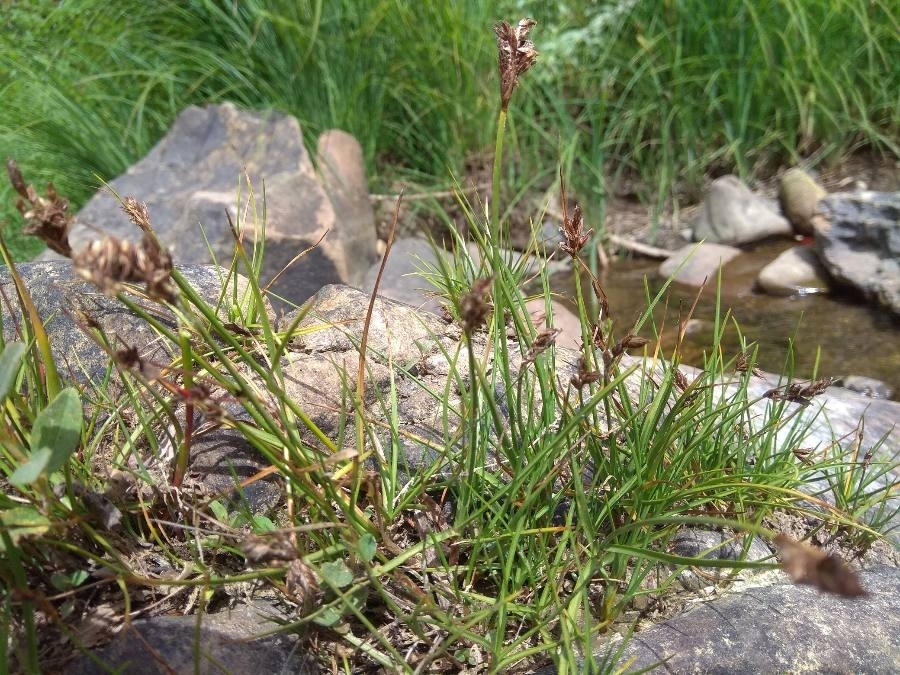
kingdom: Plantae
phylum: Tracheophyta
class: Liliopsida
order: Poales
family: Cyperaceae
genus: Blysmus
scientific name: Blysmus compressus
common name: Flat-sedge
